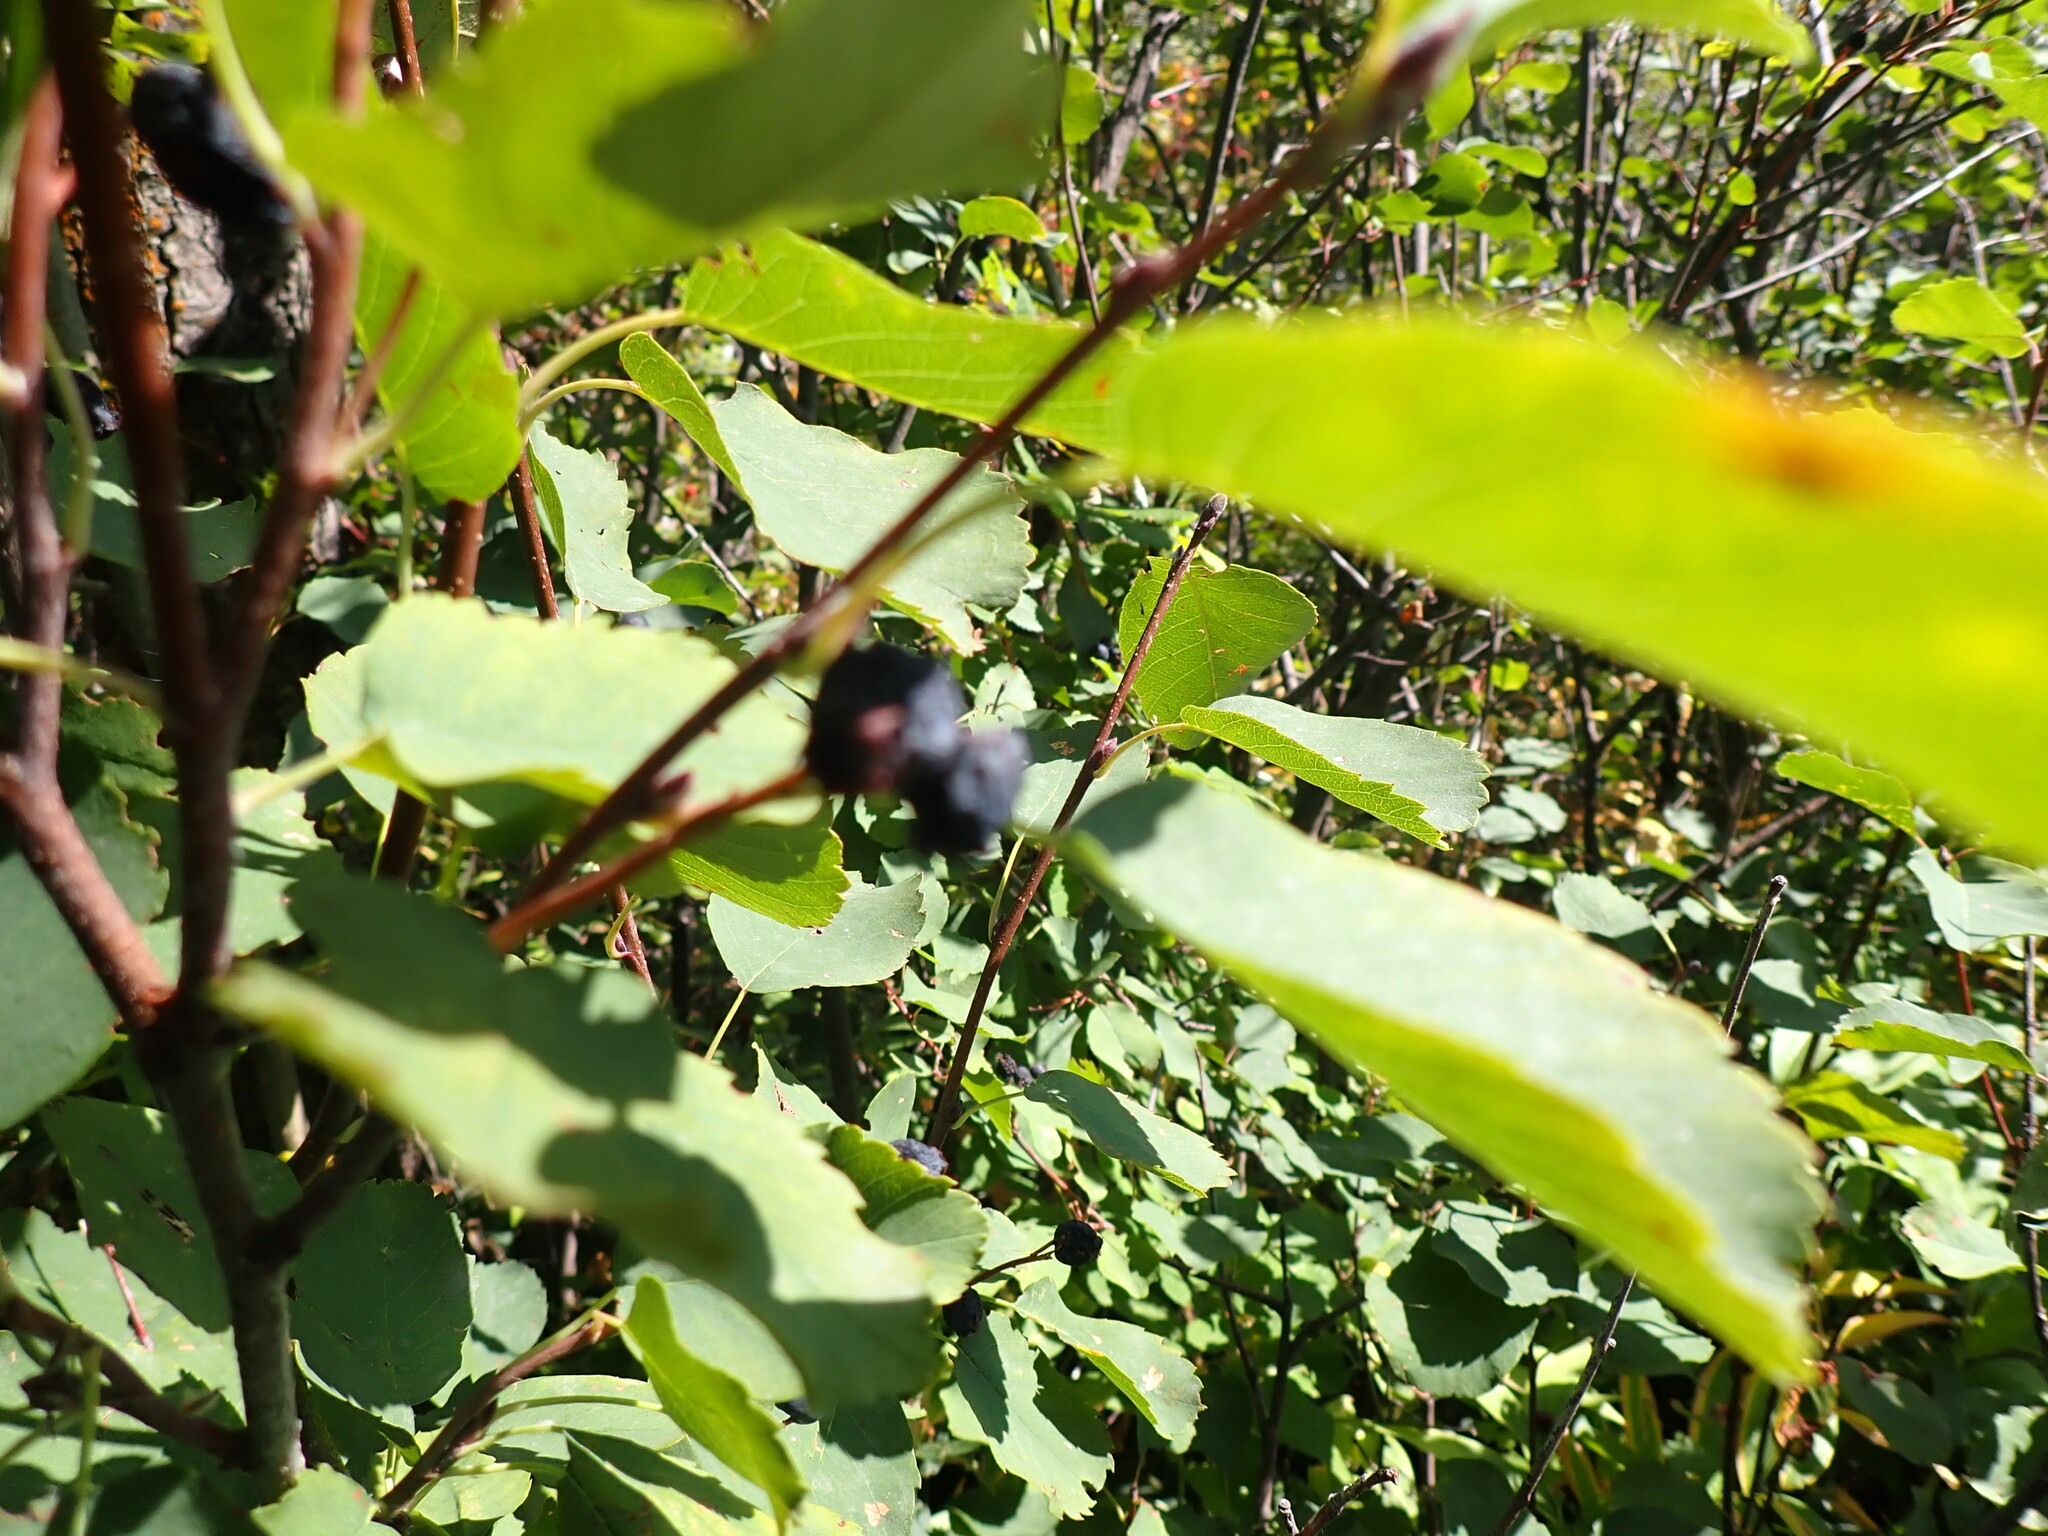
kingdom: Plantae
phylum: Tracheophyta
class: Magnoliopsida
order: Rosales
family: Rosaceae
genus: Amelanchier
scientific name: Amelanchier alnifolia
